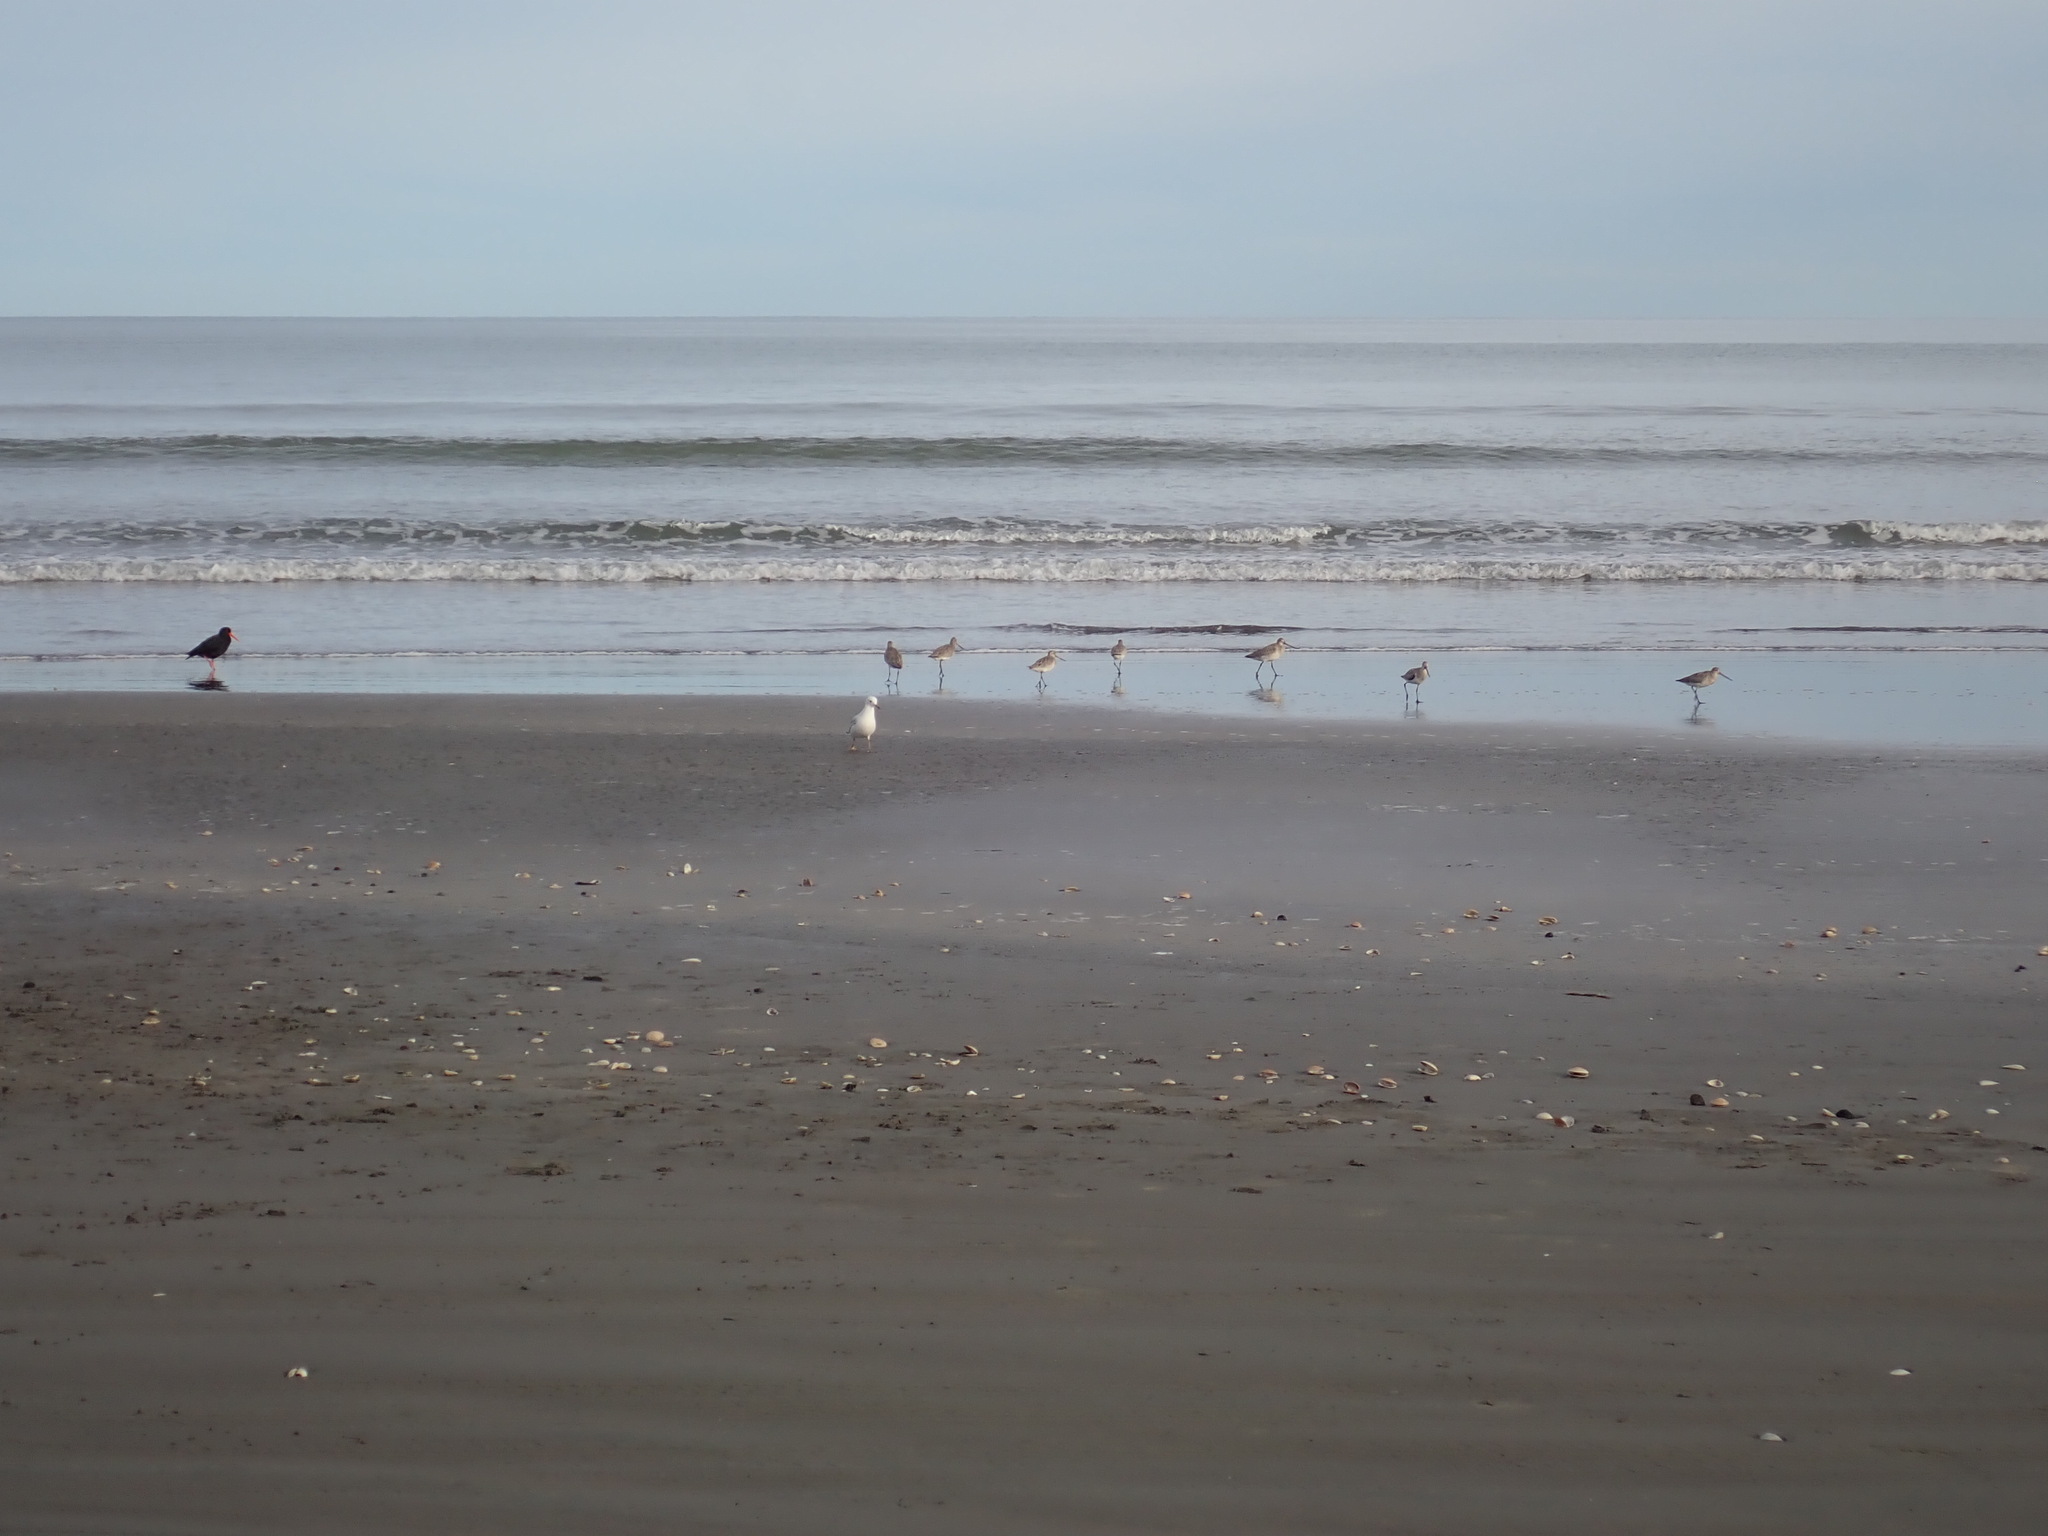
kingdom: Animalia
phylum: Chordata
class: Aves
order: Charadriiformes
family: Scolopacidae
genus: Limosa
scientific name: Limosa lapponica
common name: Bar-tailed godwit
